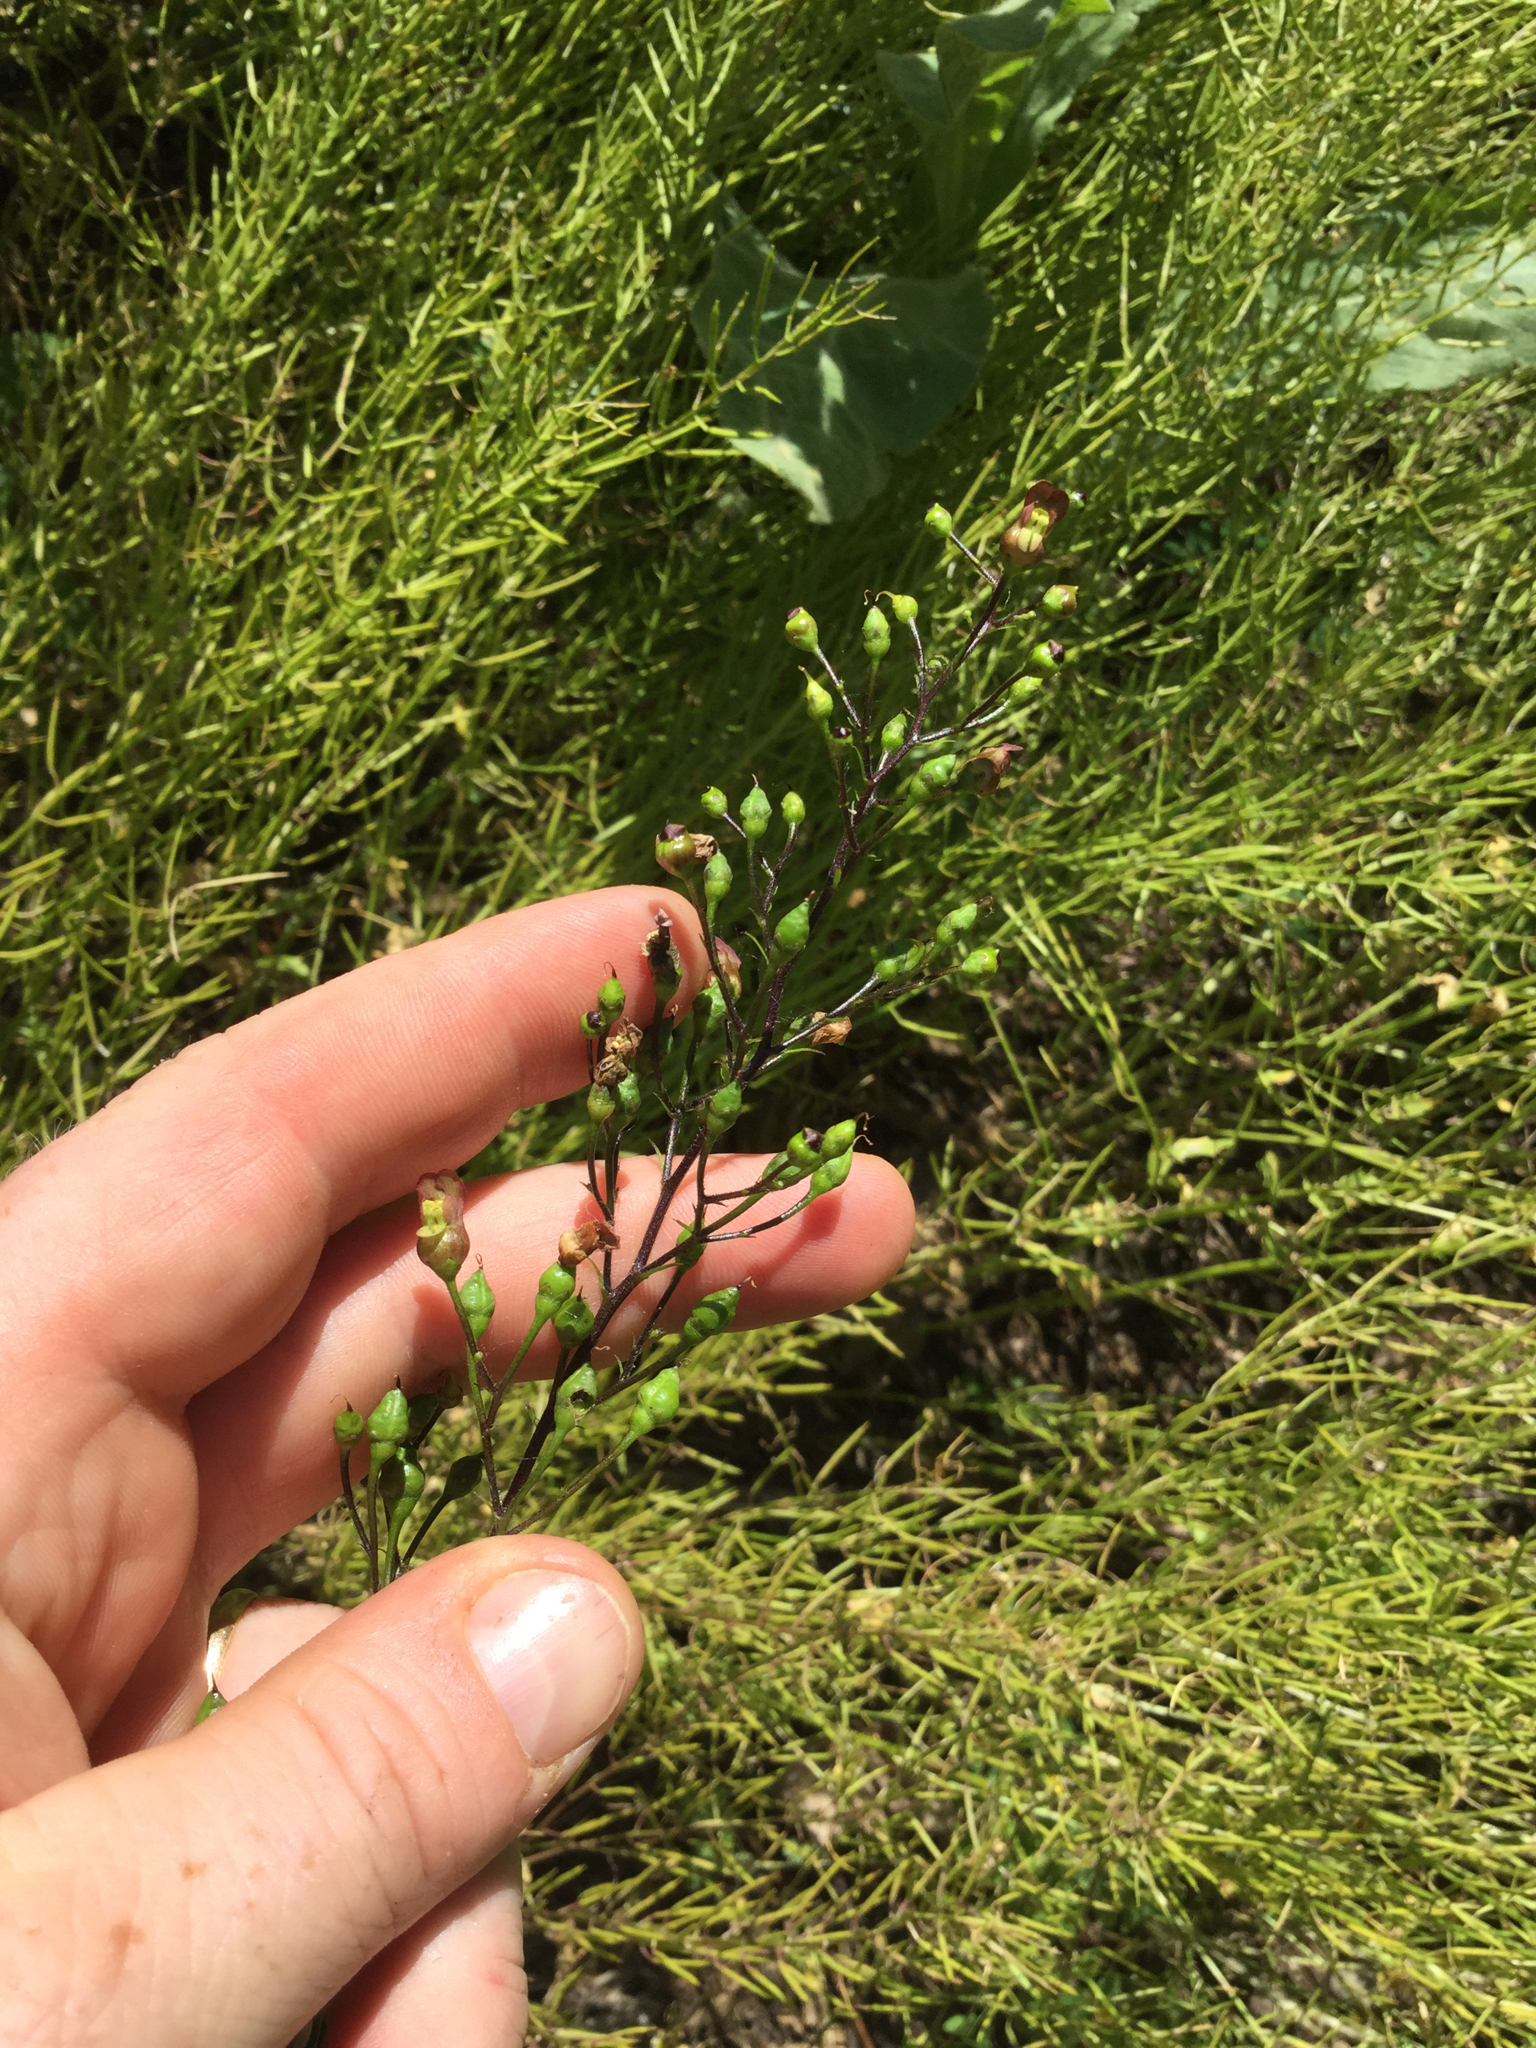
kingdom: Plantae
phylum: Tracheophyta
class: Magnoliopsida
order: Lamiales
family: Scrophulariaceae
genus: Scrophularia
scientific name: Scrophularia lanceolata
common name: American figwort
